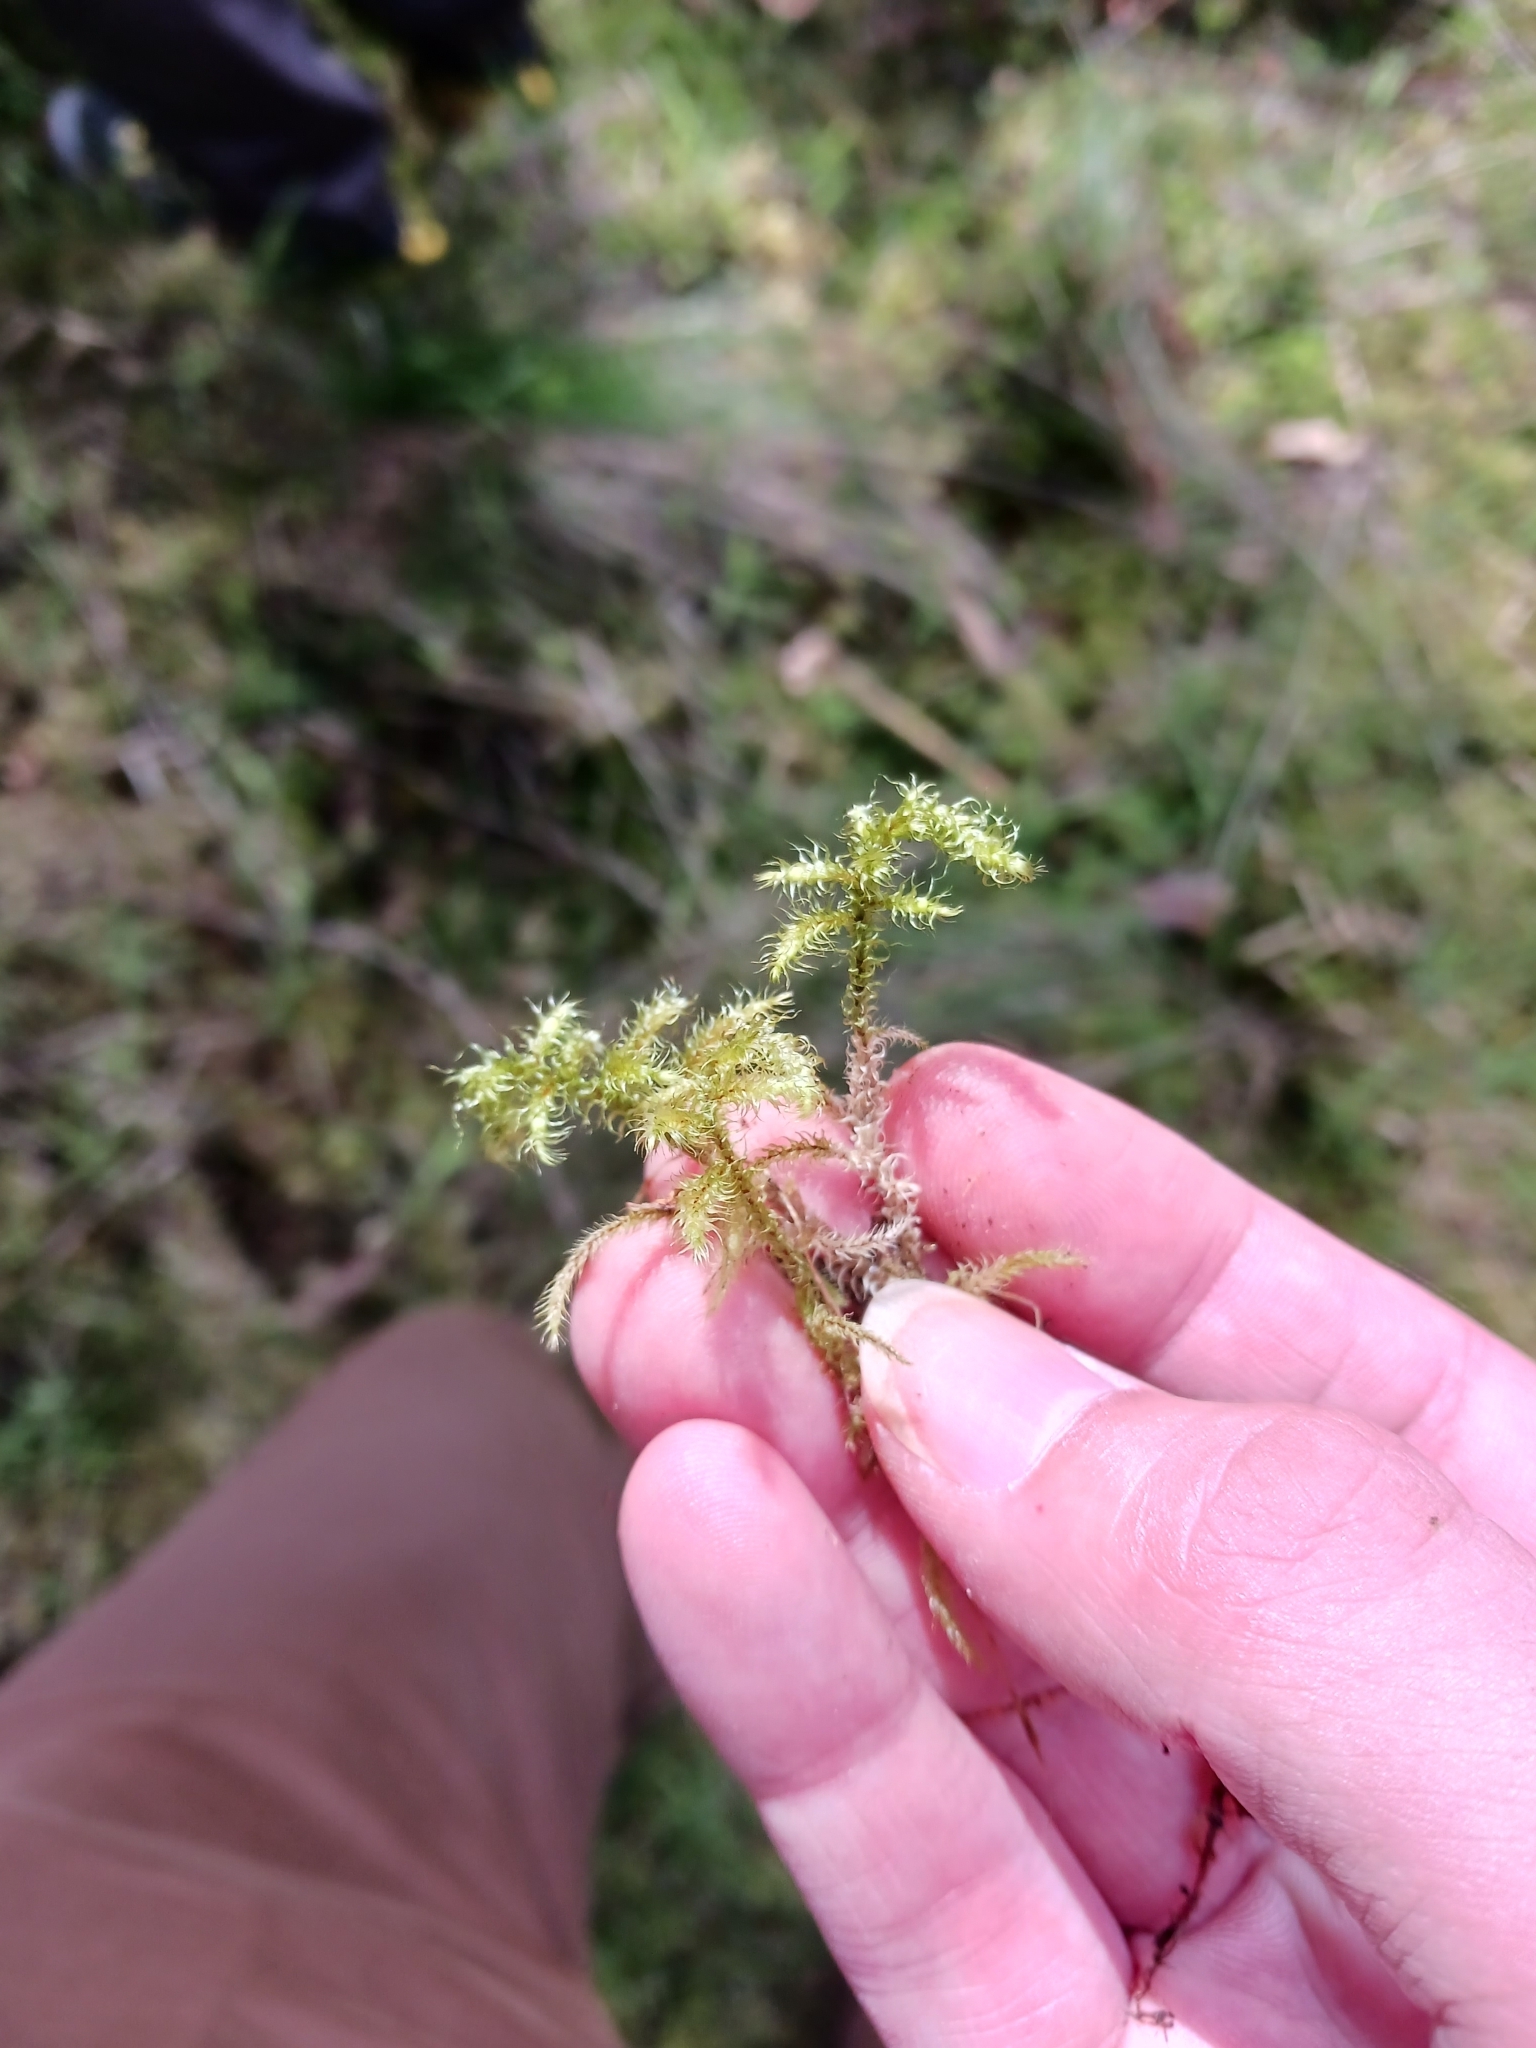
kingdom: Plantae
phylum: Bryophyta
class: Bryopsida
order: Hypnales
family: Hylocomiaceae
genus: Rhytidiadelphus
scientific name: Rhytidiadelphus loreus
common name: Lanky moss
